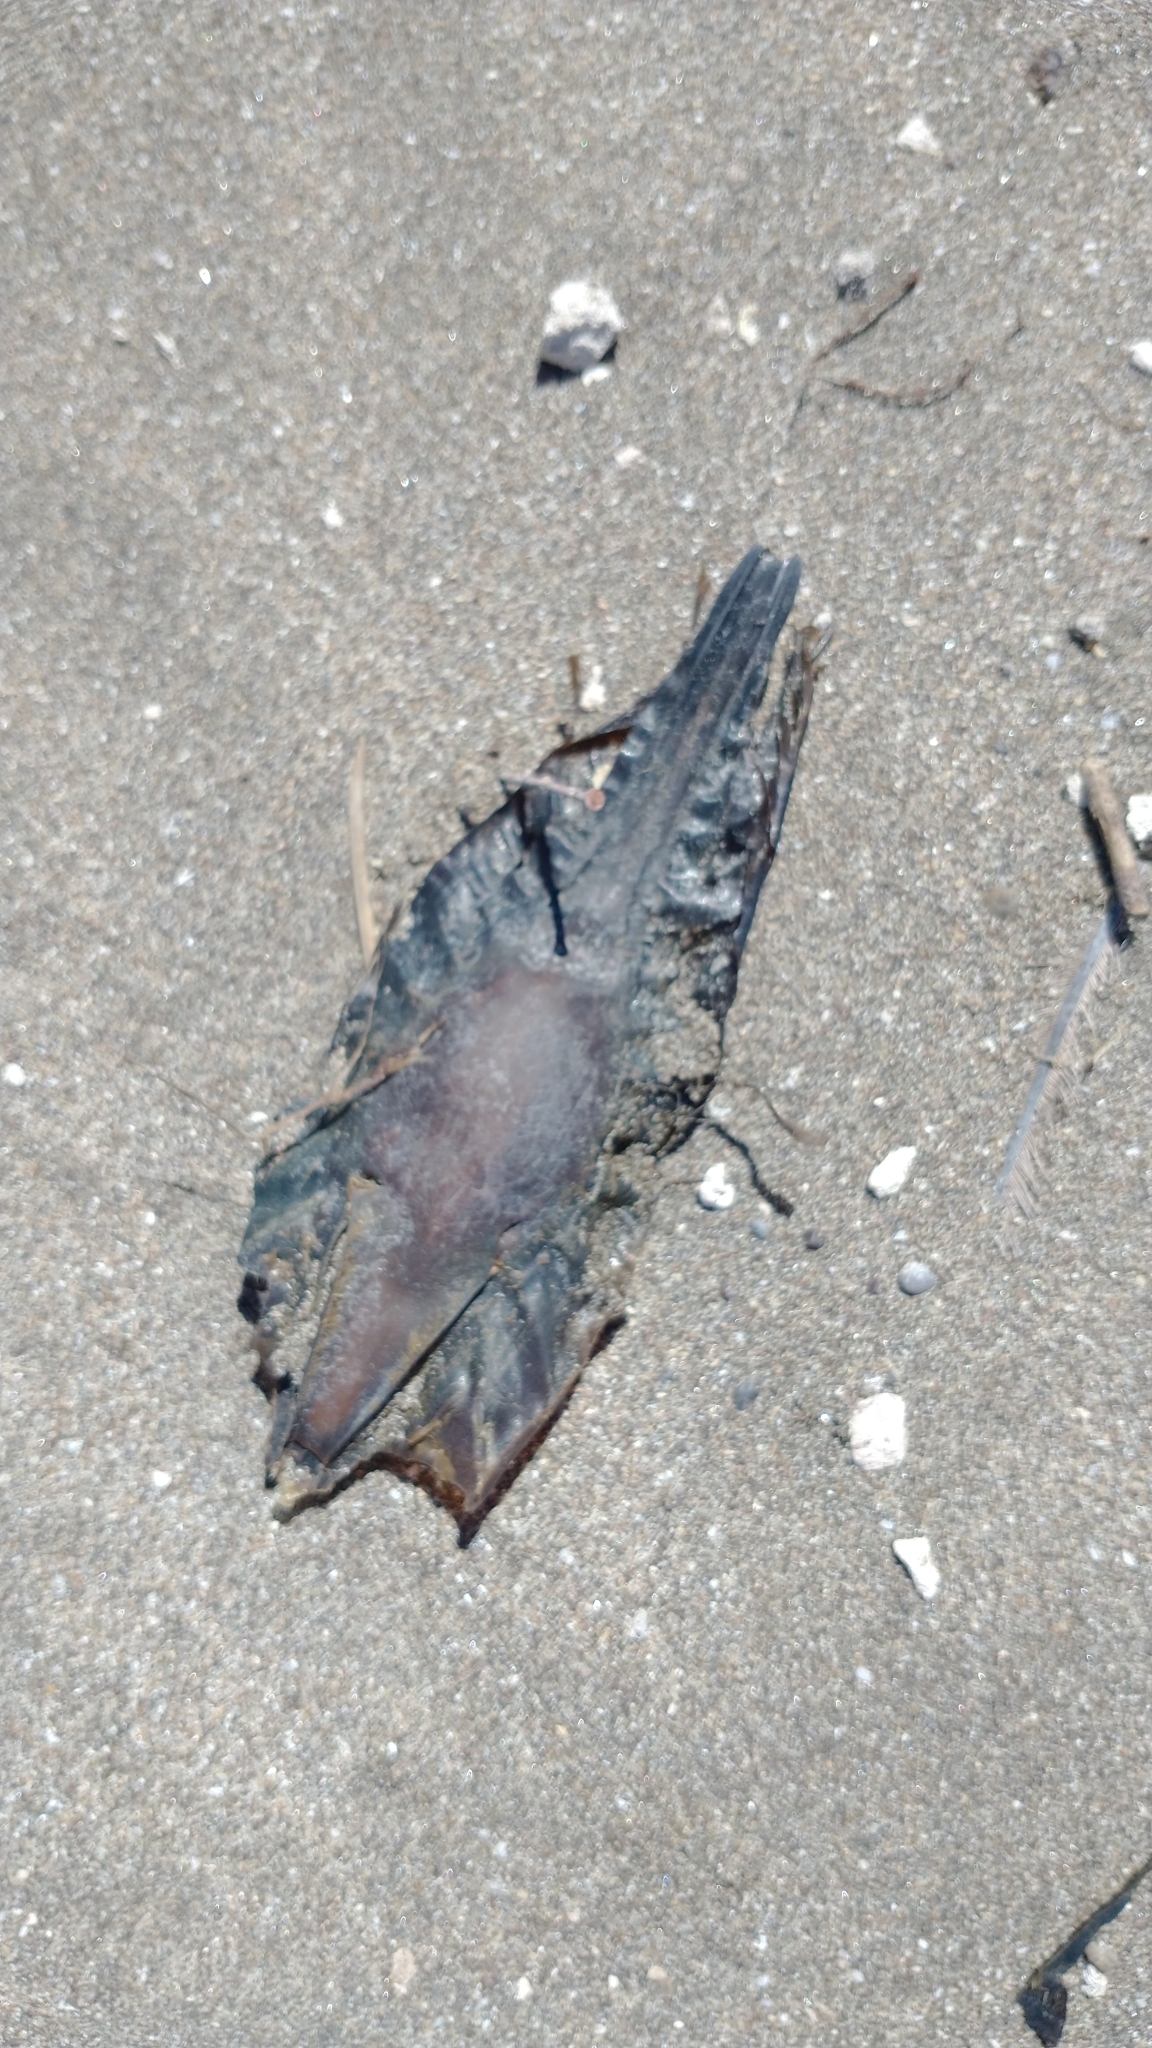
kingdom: Animalia
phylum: Chordata
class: Holocephali
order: Chimaeriformes
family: Callorhinchidae
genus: Callorhinchus
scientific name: Callorhinchus callorynchus
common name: Elephant fish
